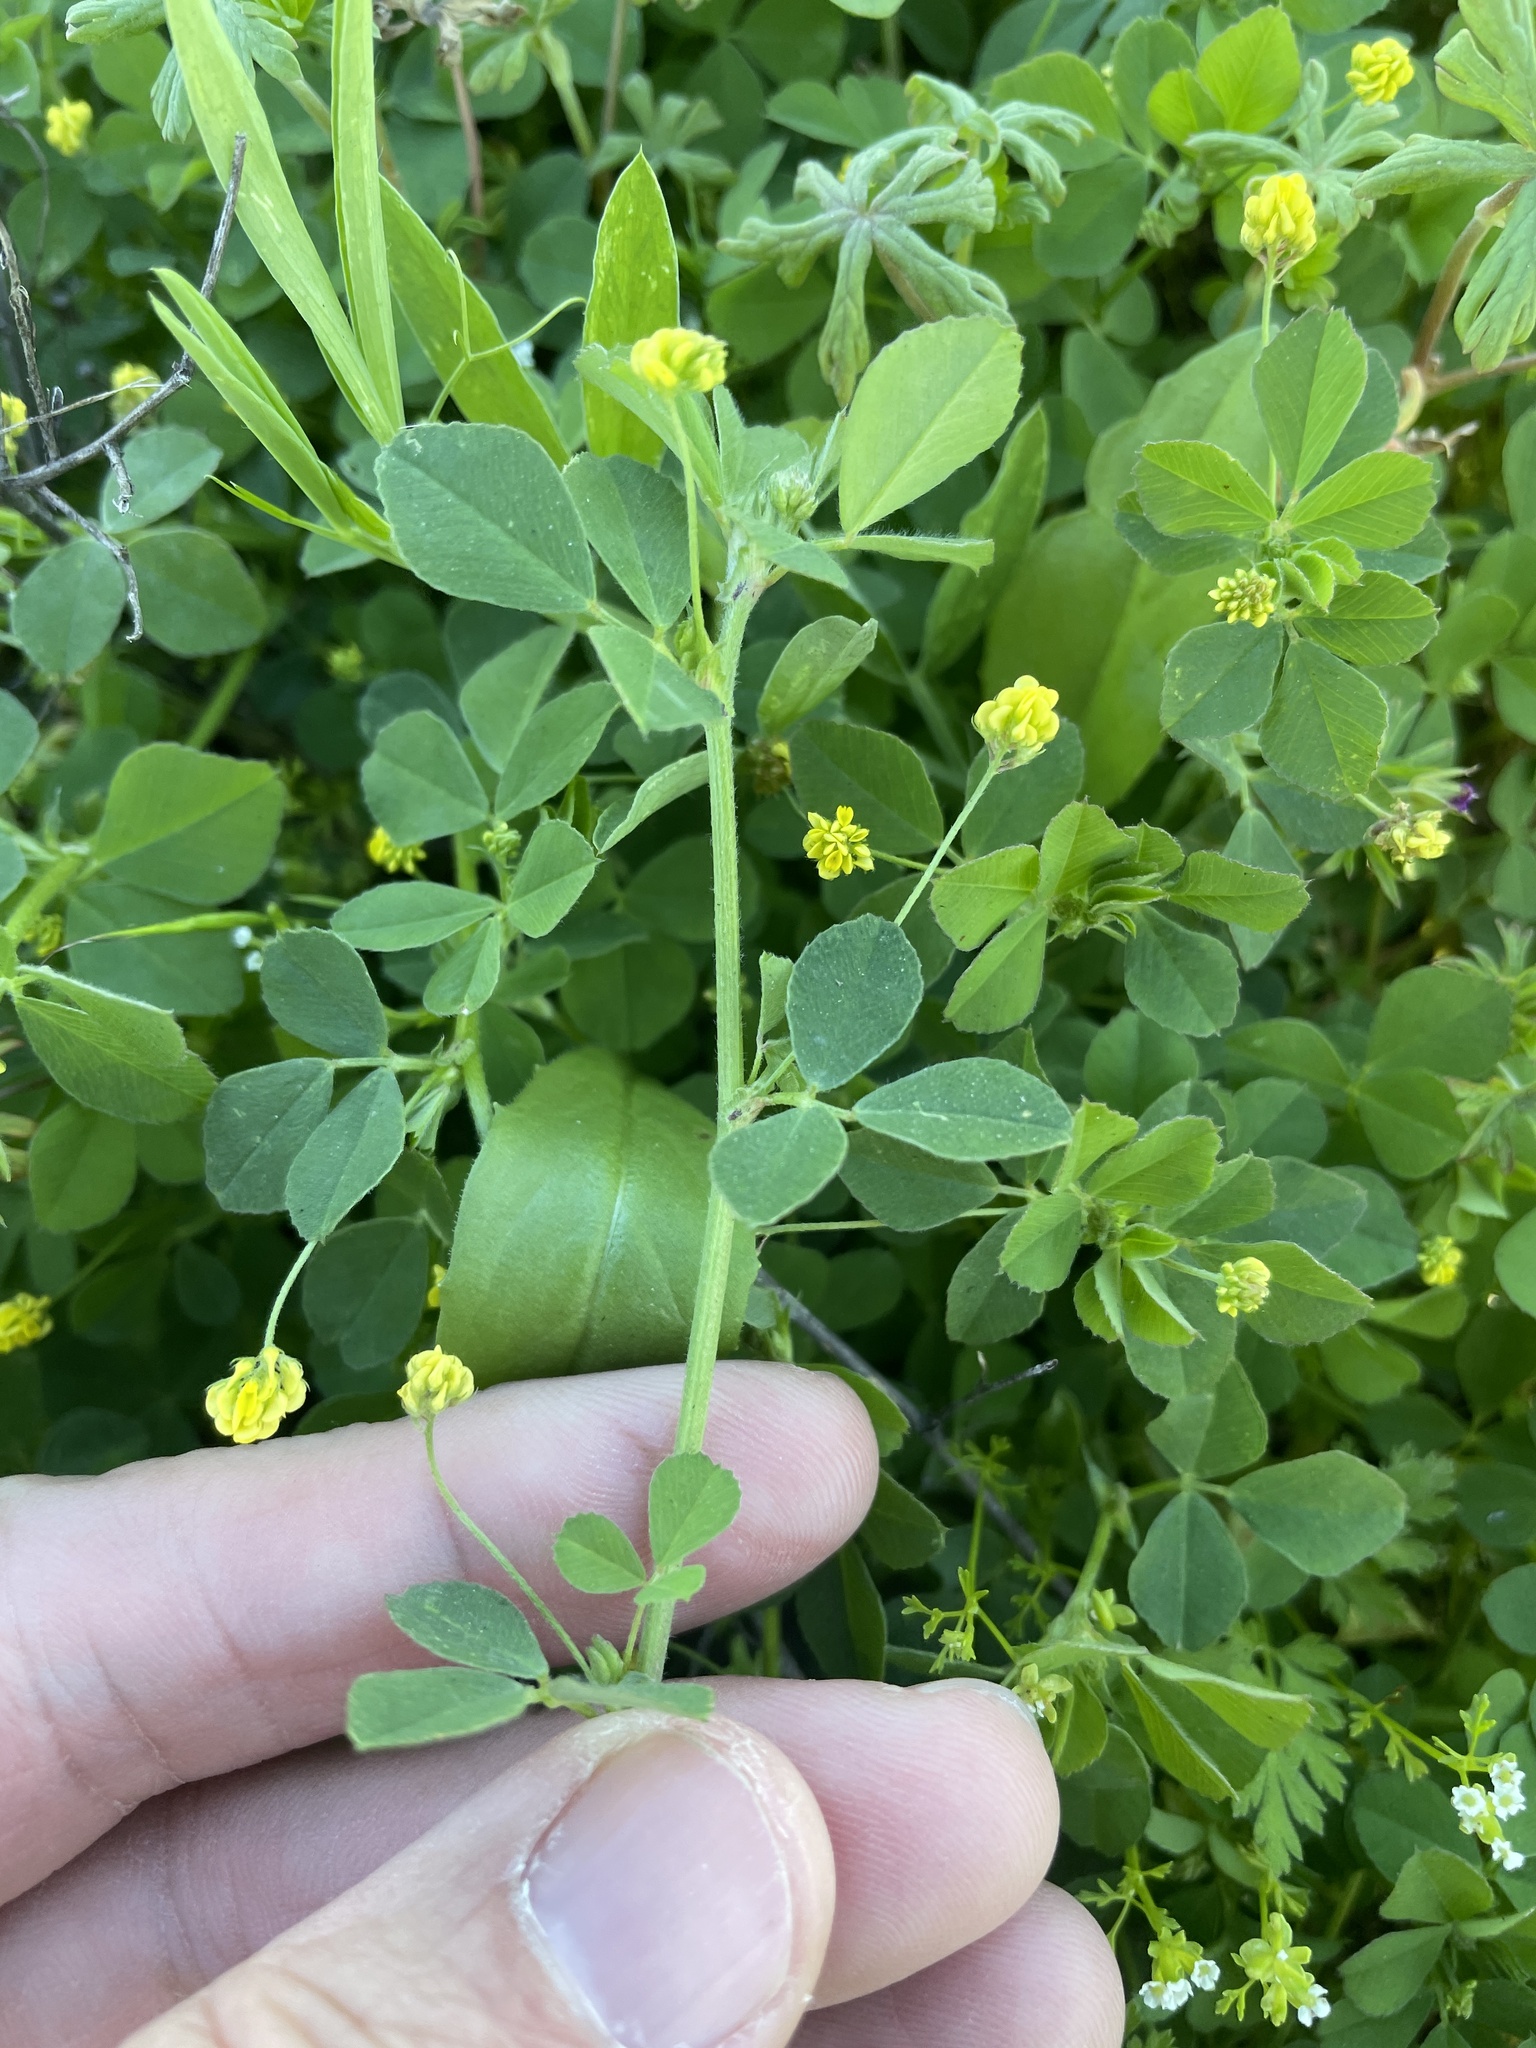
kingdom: Plantae
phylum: Tracheophyta
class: Magnoliopsida
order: Fabales
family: Fabaceae
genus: Medicago
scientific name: Medicago lupulina
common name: Black medick
